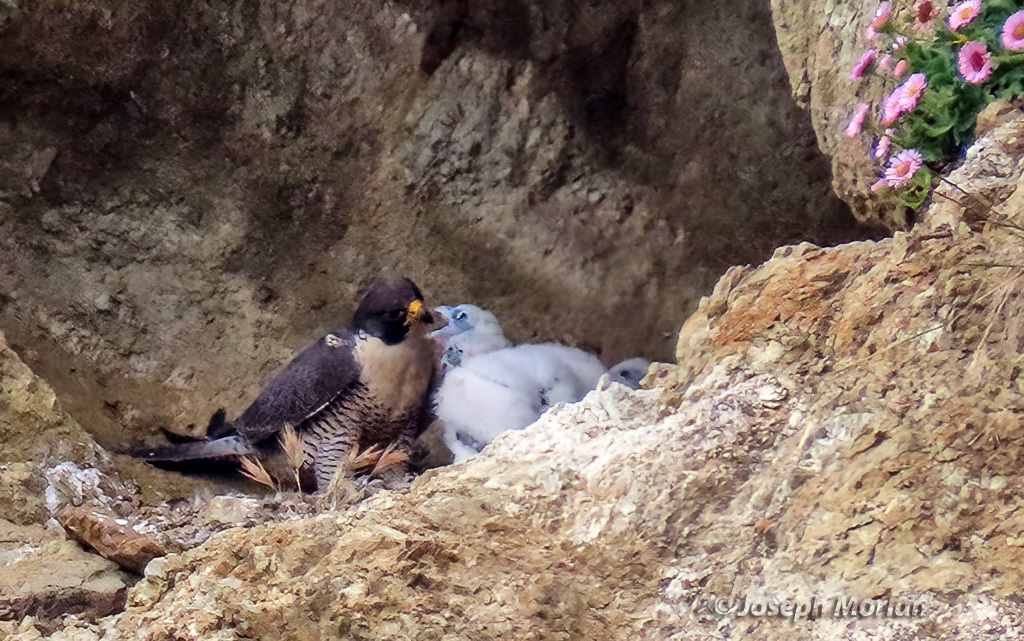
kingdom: Animalia
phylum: Chordata
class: Aves
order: Falconiformes
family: Falconidae
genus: Falco
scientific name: Falco peregrinus
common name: Peregrine falcon
